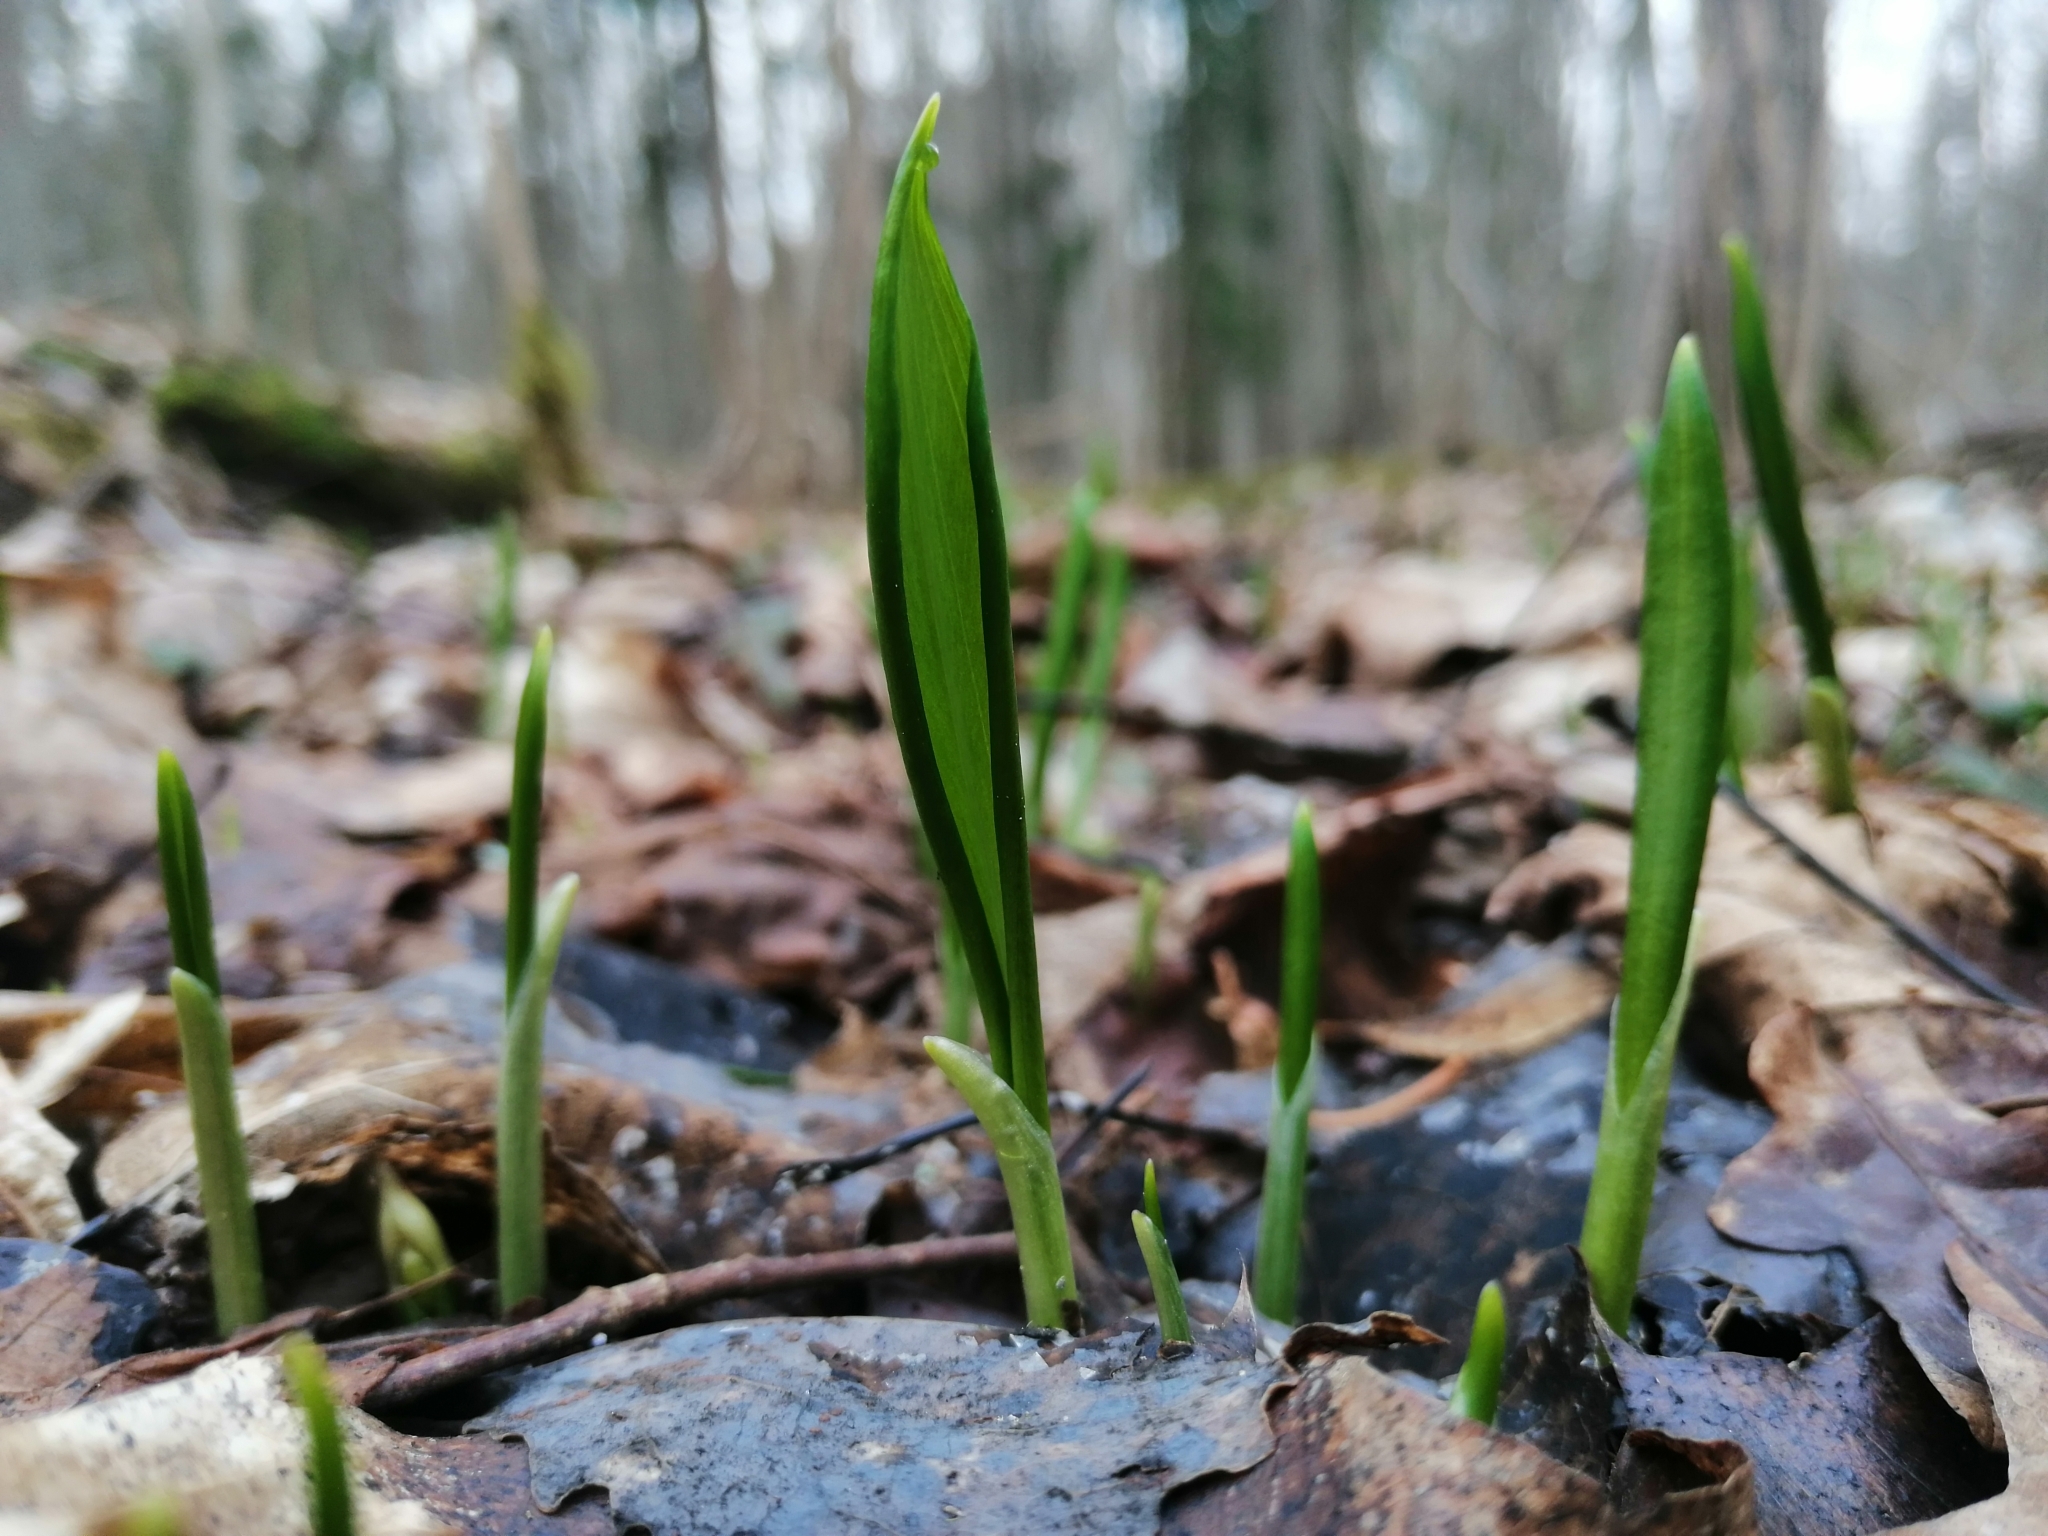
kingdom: Plantae
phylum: Tracheophyta
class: Liliopsida
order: Asparagales
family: Amaryllidaceae
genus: Allium
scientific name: Allium ursinum
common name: Ramsons
